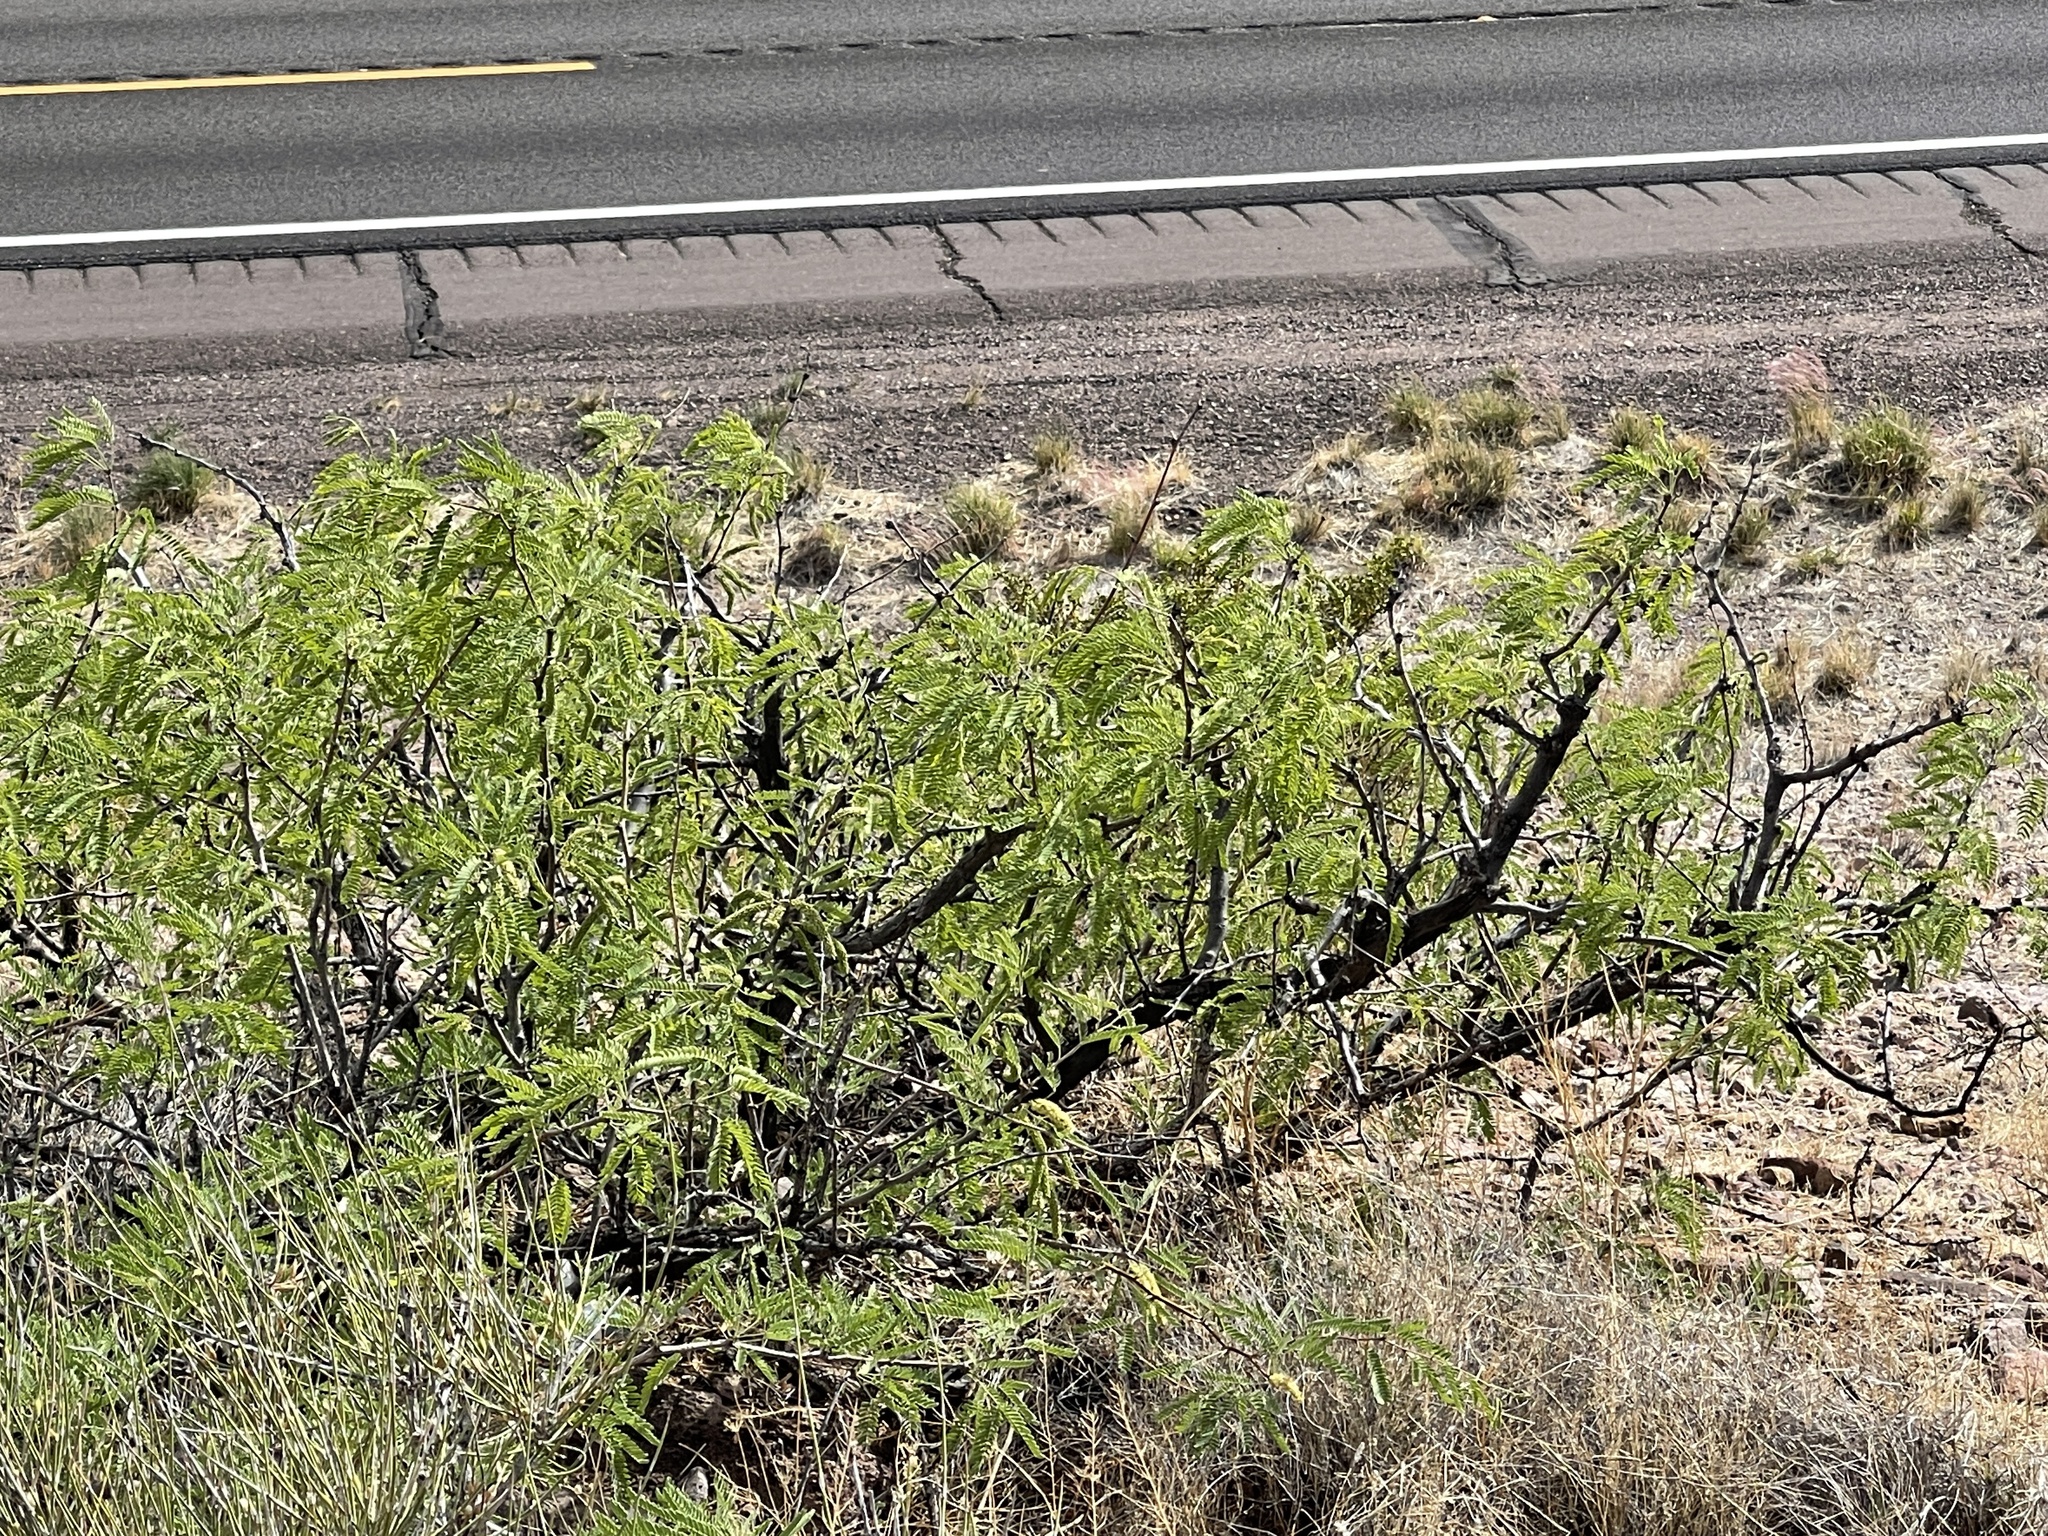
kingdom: Plantae
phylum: Tracheophyta
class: Magnoliopsida
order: Fabales
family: Fabaceae
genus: Prosopis
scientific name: Prosopis glandulosa
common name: Honey mesquite
